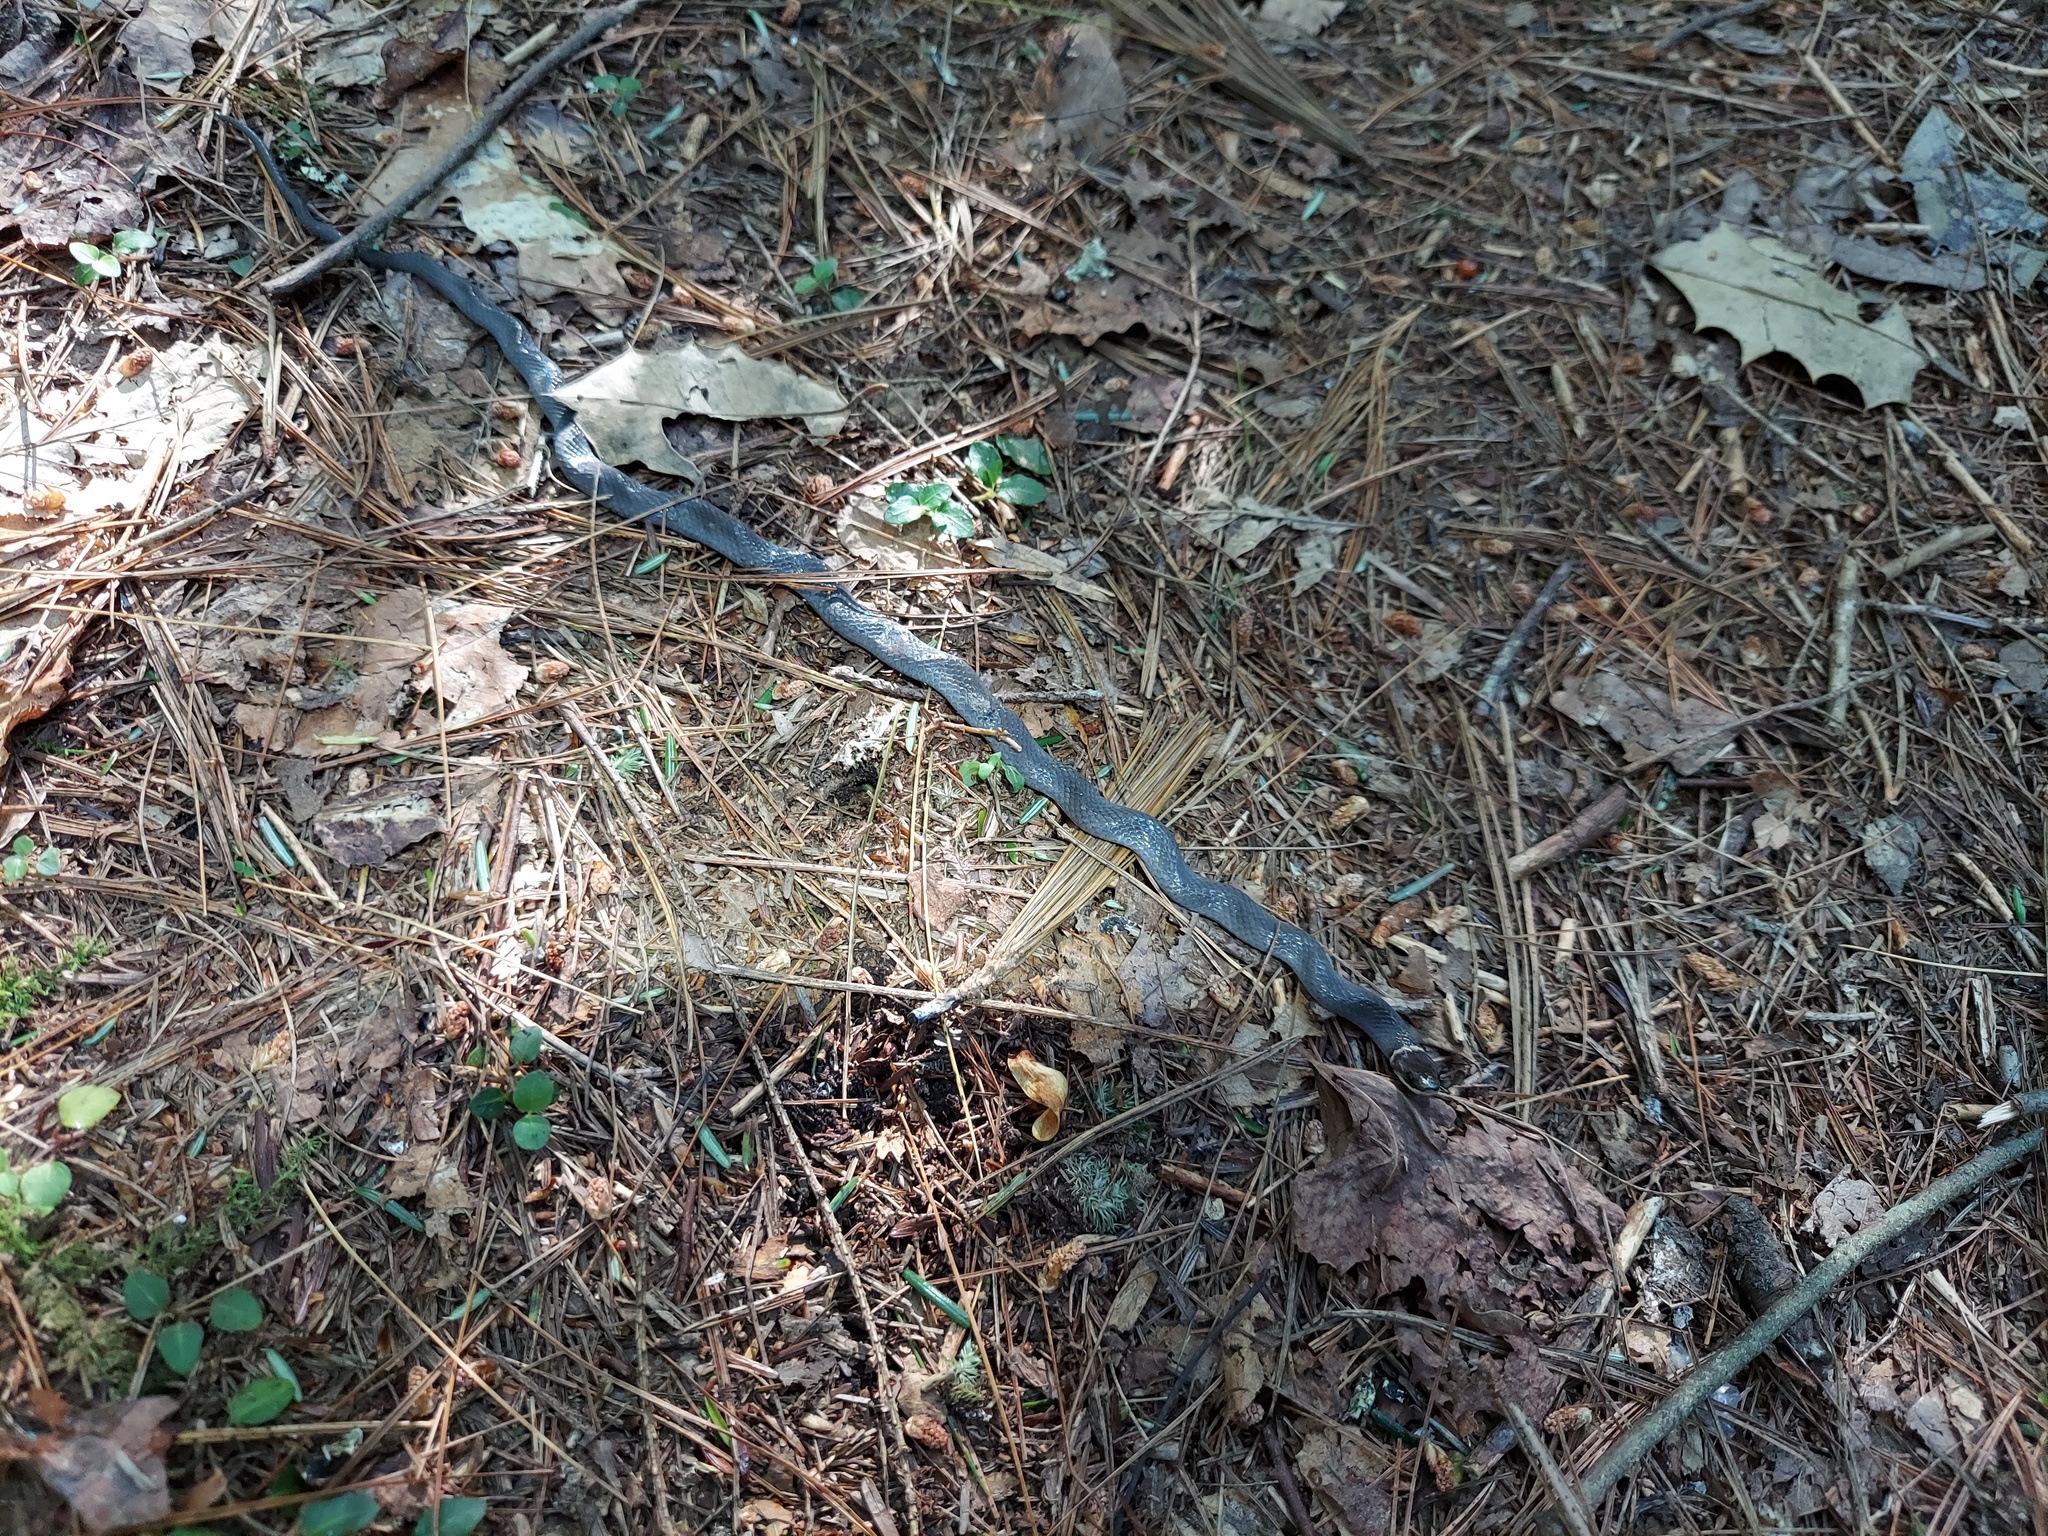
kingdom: Animalia
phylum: Chordata
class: Squamata
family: Colubridae
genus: Diadophis
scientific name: Diadophis punctatus
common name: Ringneck snake
